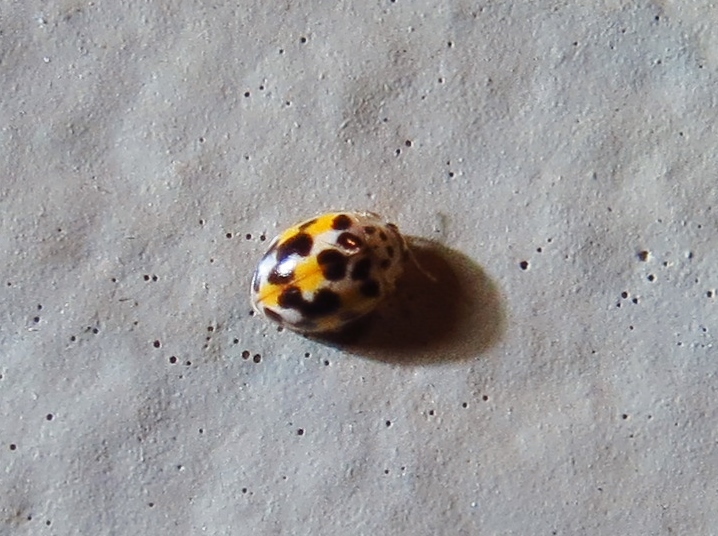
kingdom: Animalia
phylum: Arthropoda
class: Insecta
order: Coleoptera
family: Coccinellidae
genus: Psyllobora
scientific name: Psyllobora vigintimaculata
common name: Ladybird beetle
